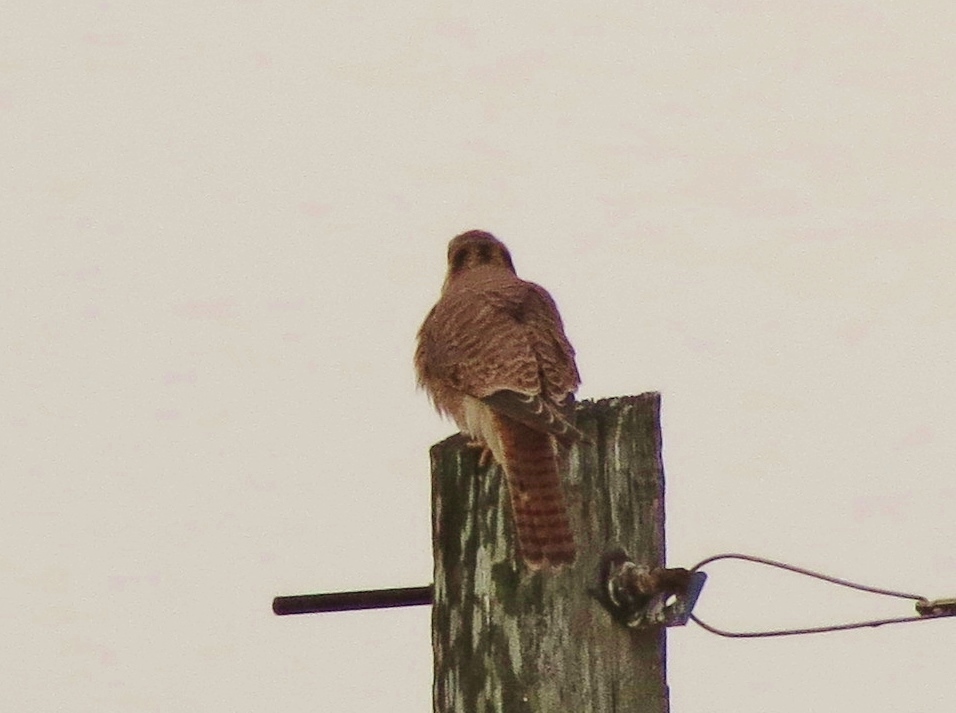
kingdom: Animalia
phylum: Chordata
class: Aves
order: Falconiformes
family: Falconidae
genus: Falco
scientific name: Falco sparverius
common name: American kestrel
